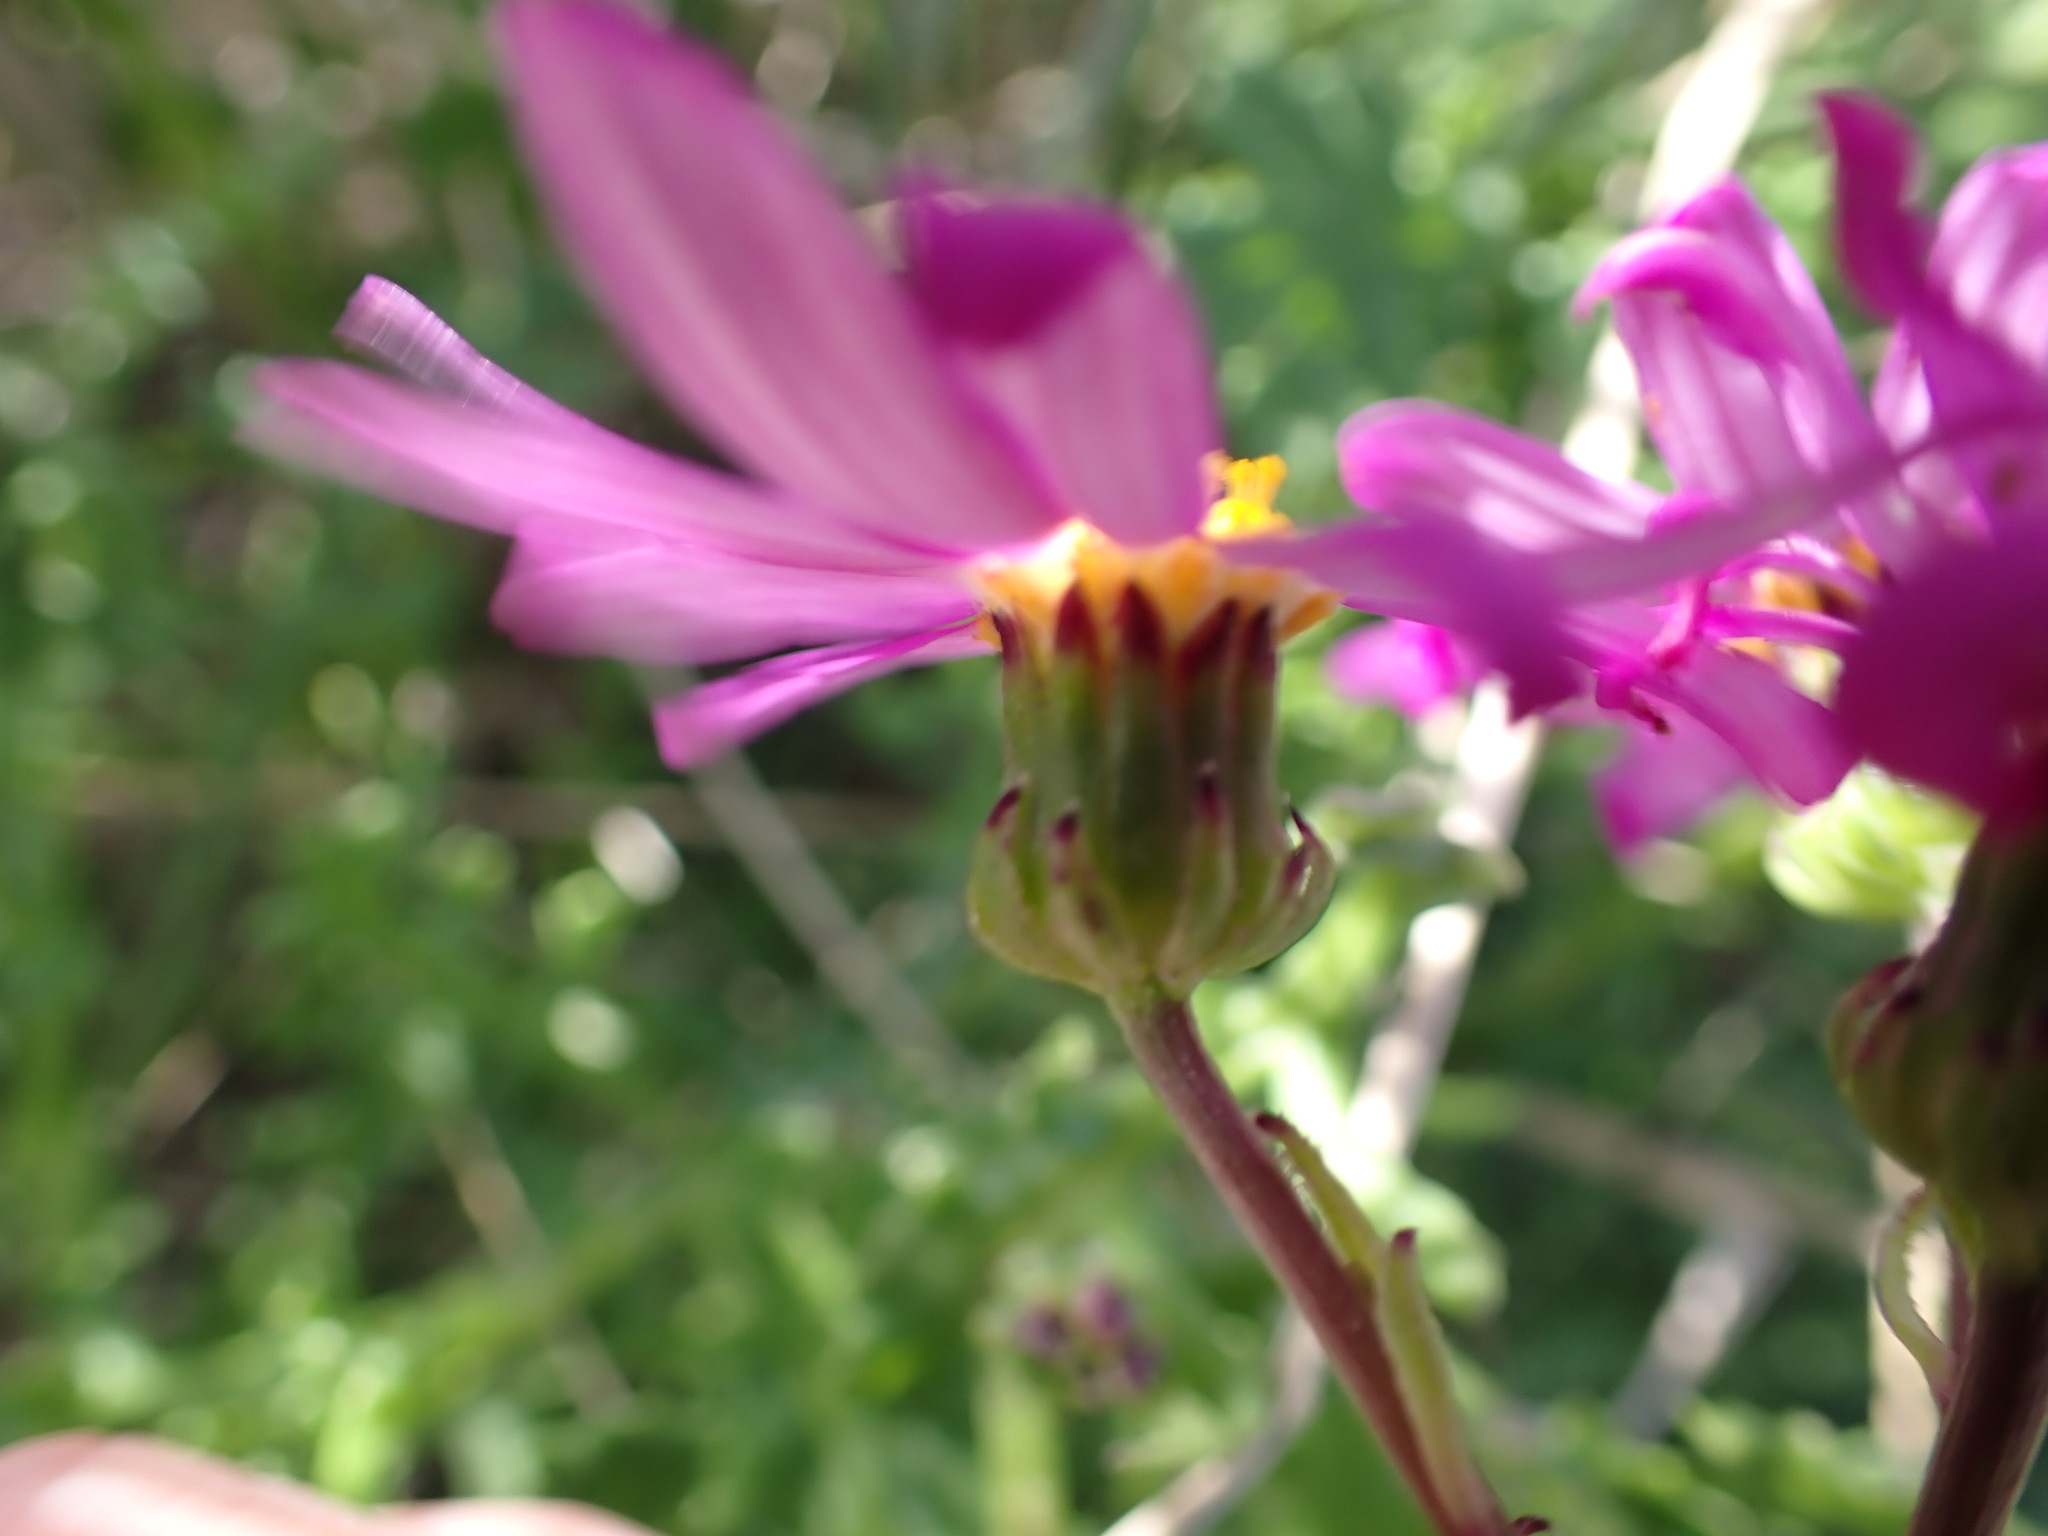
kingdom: Plantae
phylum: Tracheophyta
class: Magnoliopsida
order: Asterales
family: Asteraceae
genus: Senecio
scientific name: Senecio elegans
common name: Purple groundsel
